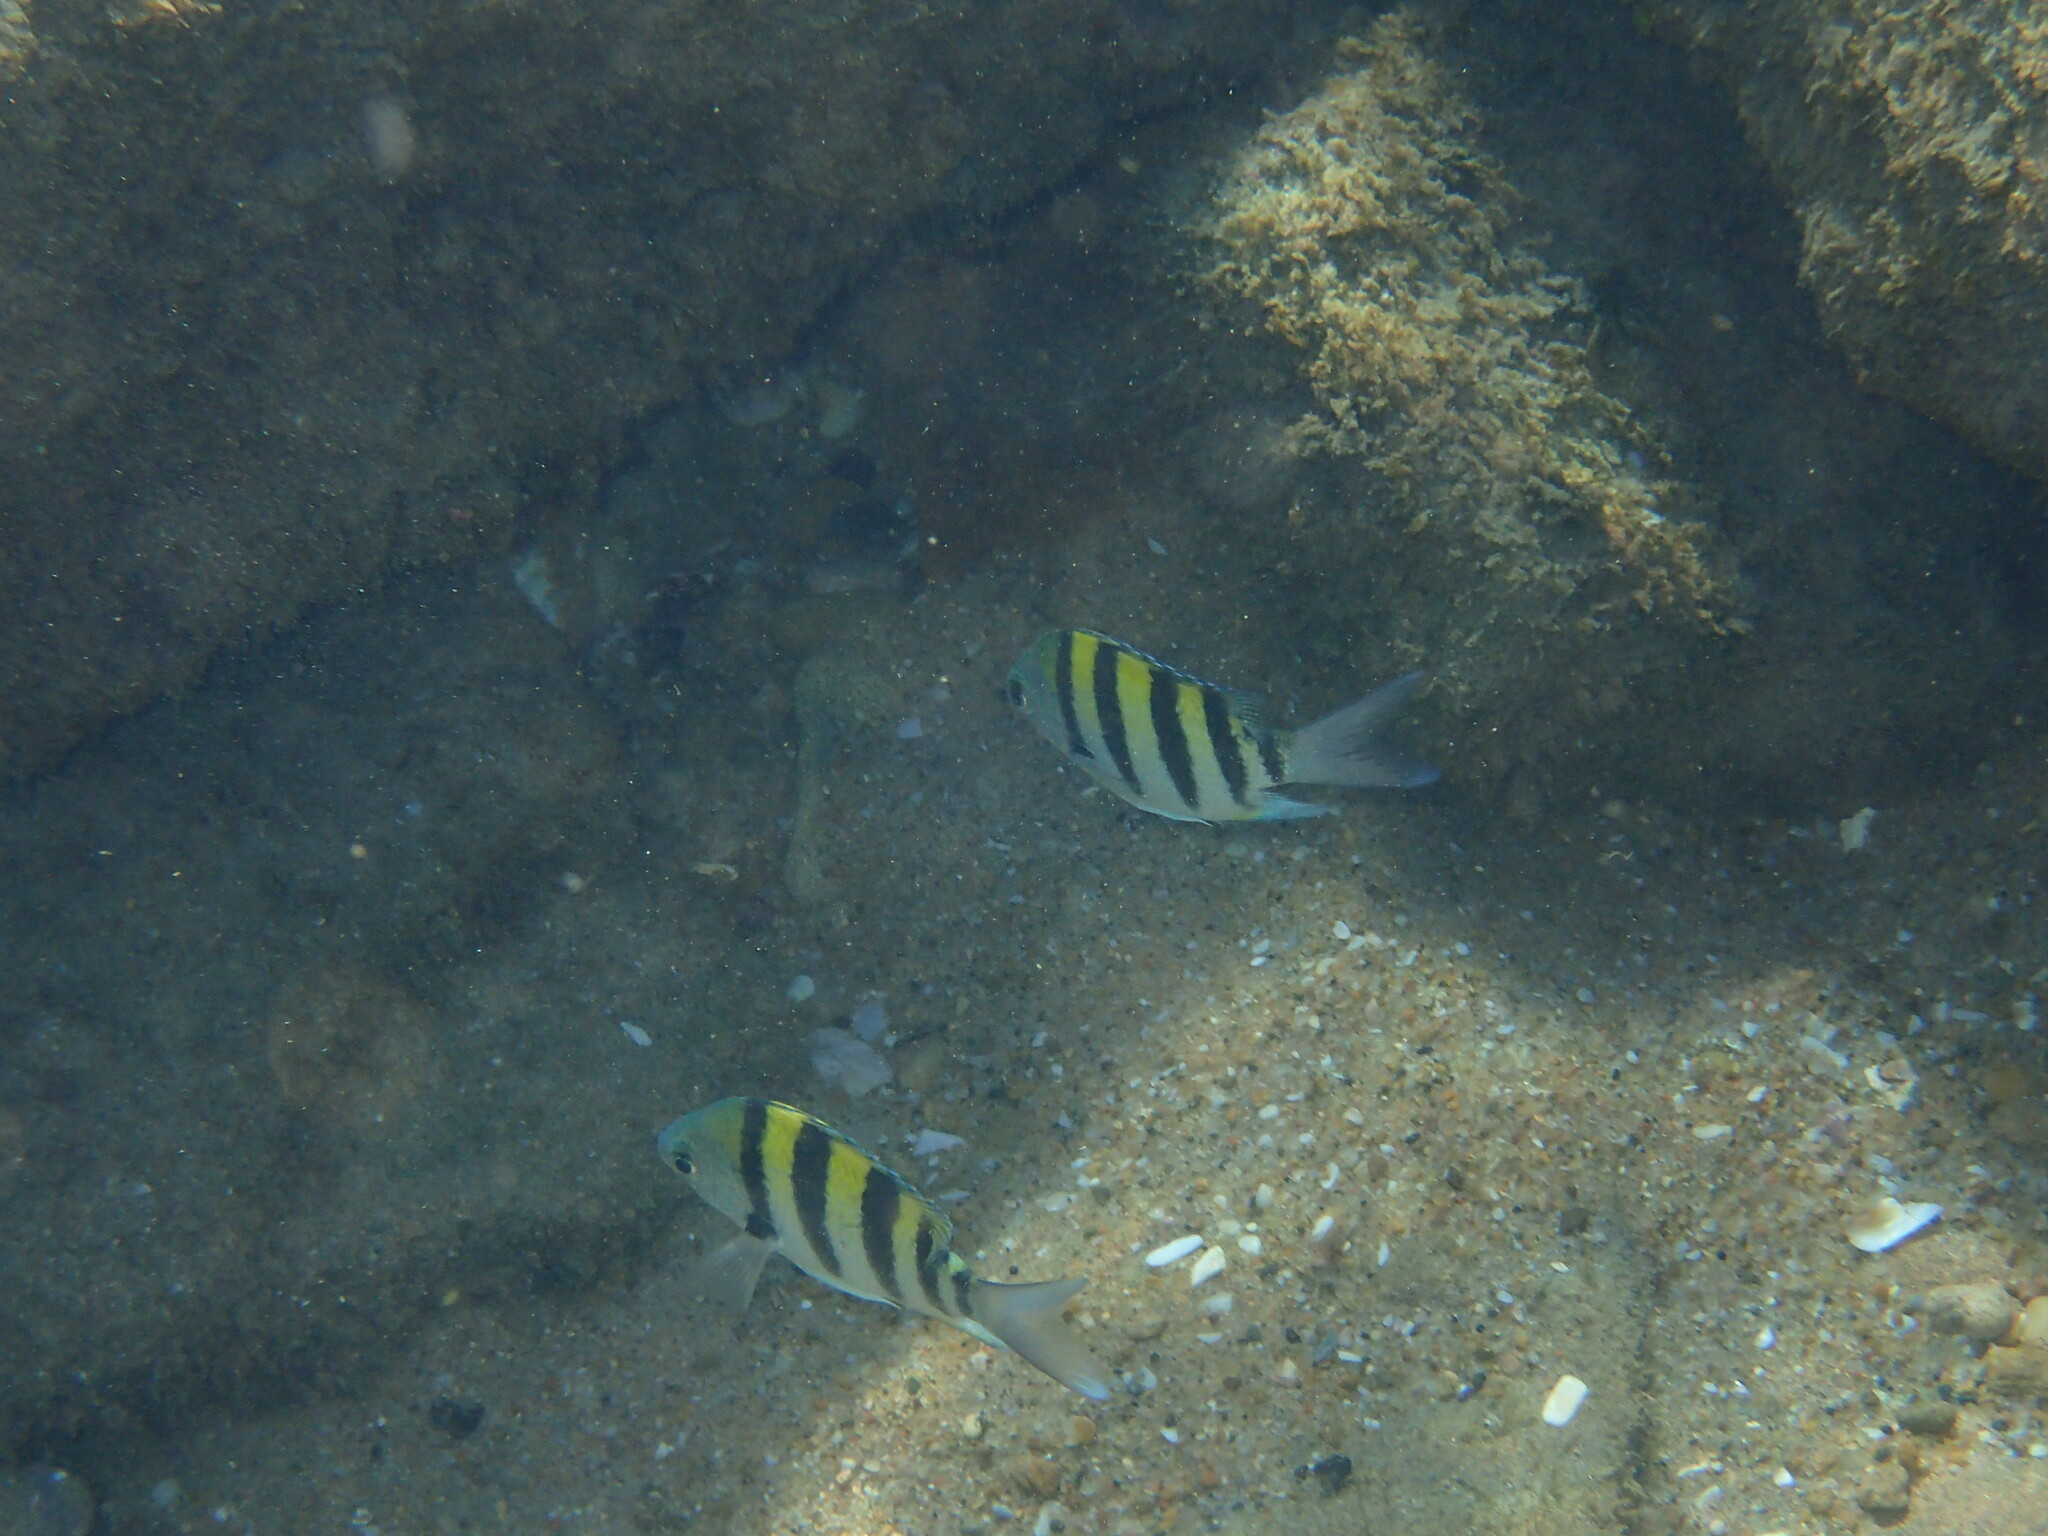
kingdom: Animalia
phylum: Chordata
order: Perciformes
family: Pomacentridae
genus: Abudefduf
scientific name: Abudefduf vaigiensis
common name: Indo-pacific sergeant
